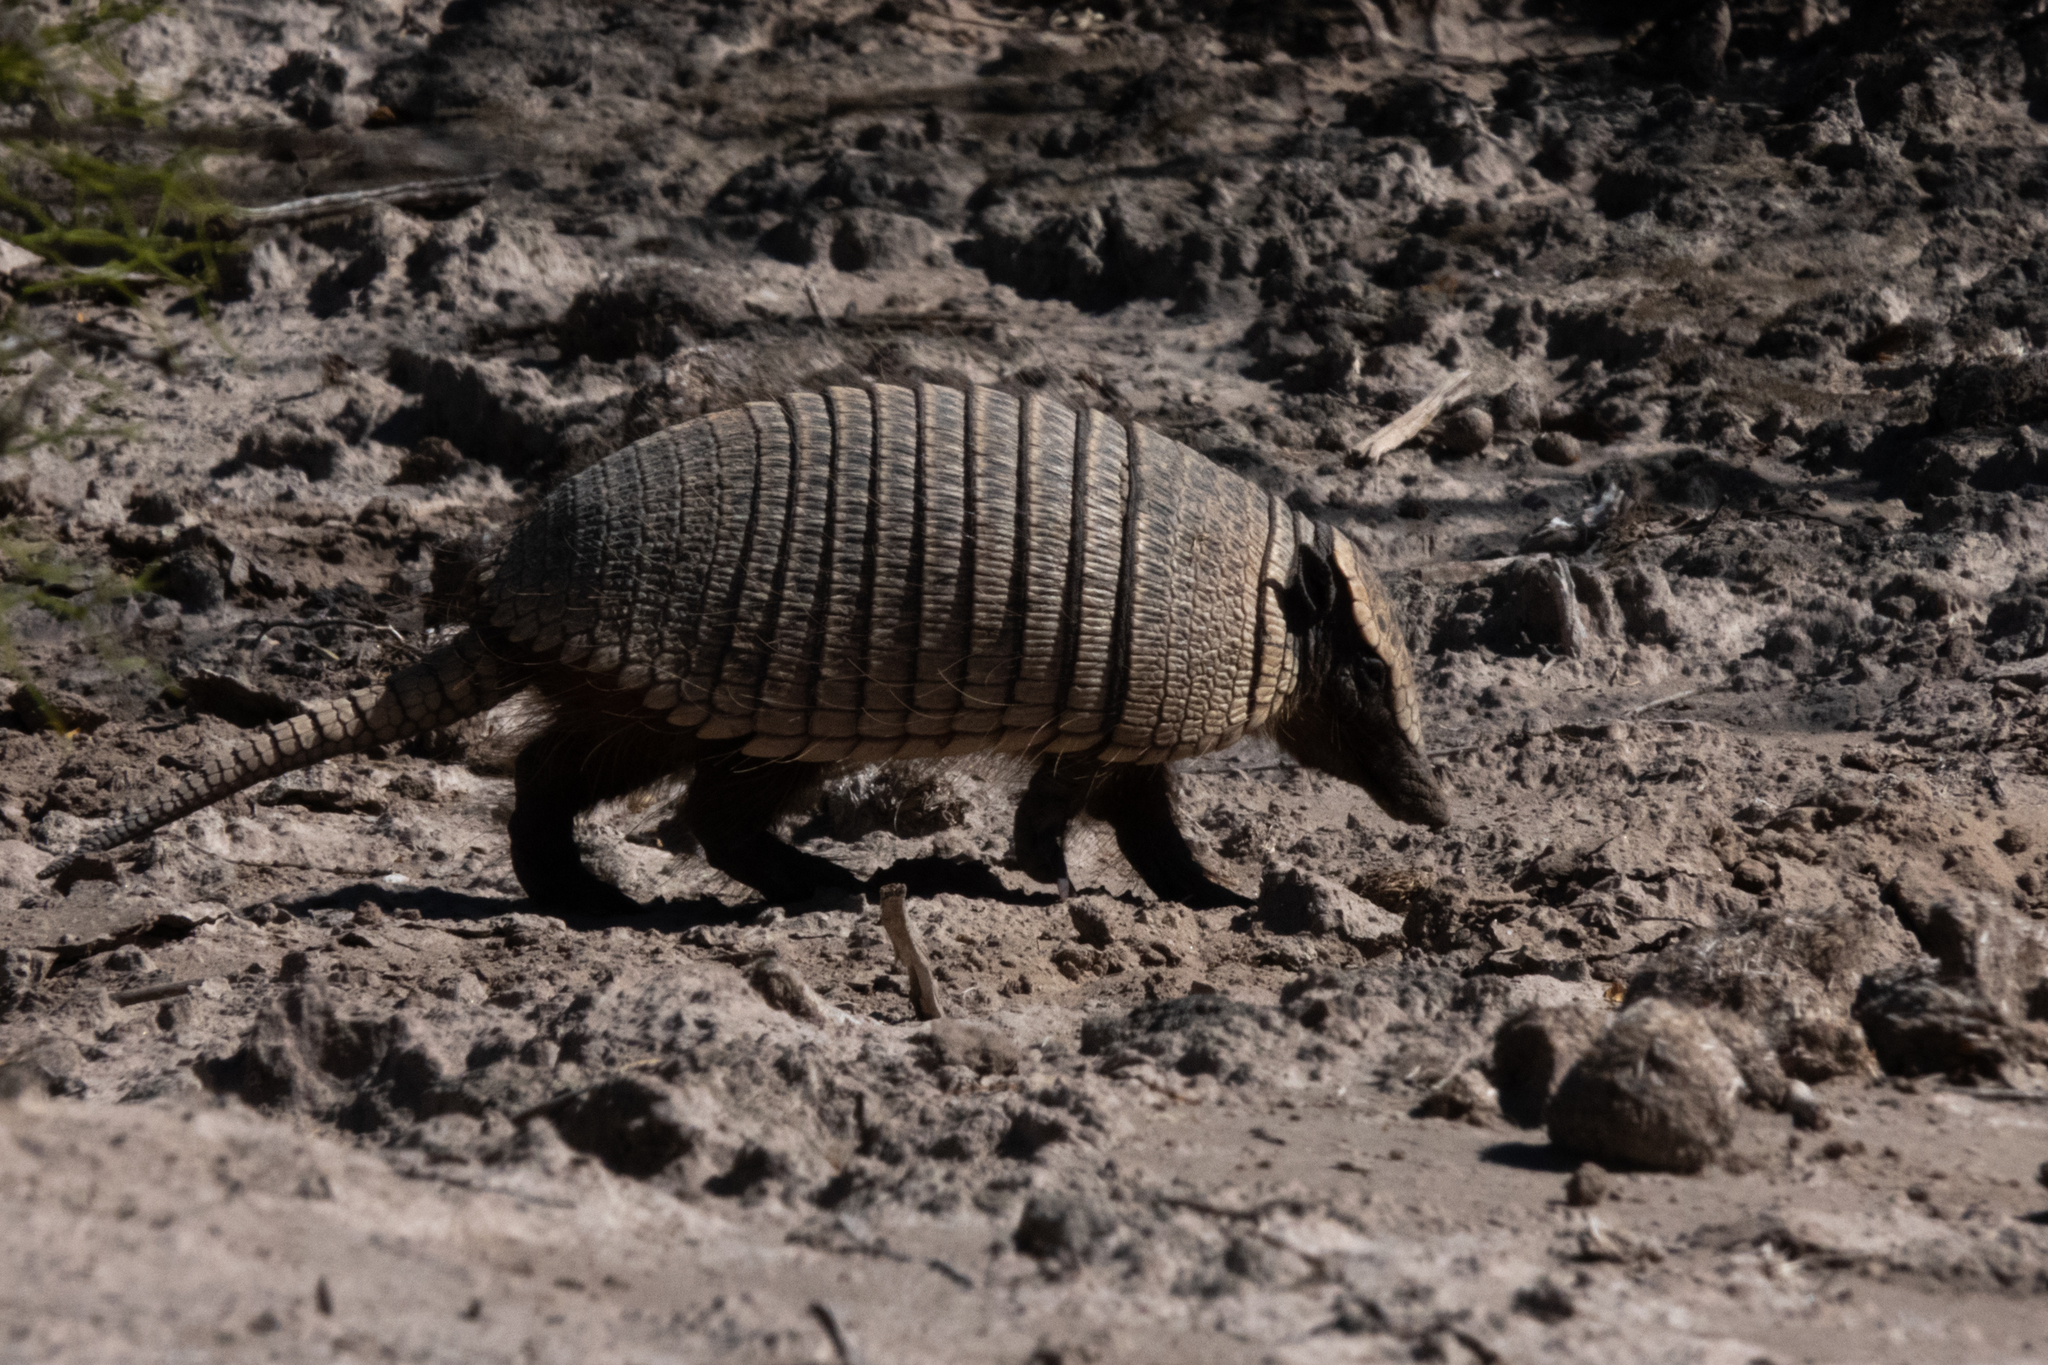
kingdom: Animalia
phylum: Chordata
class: Mammalia
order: Cingulata
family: Dasypodidae
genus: Zaedyus
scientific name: Zaedyus pichiy
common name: Pichi
